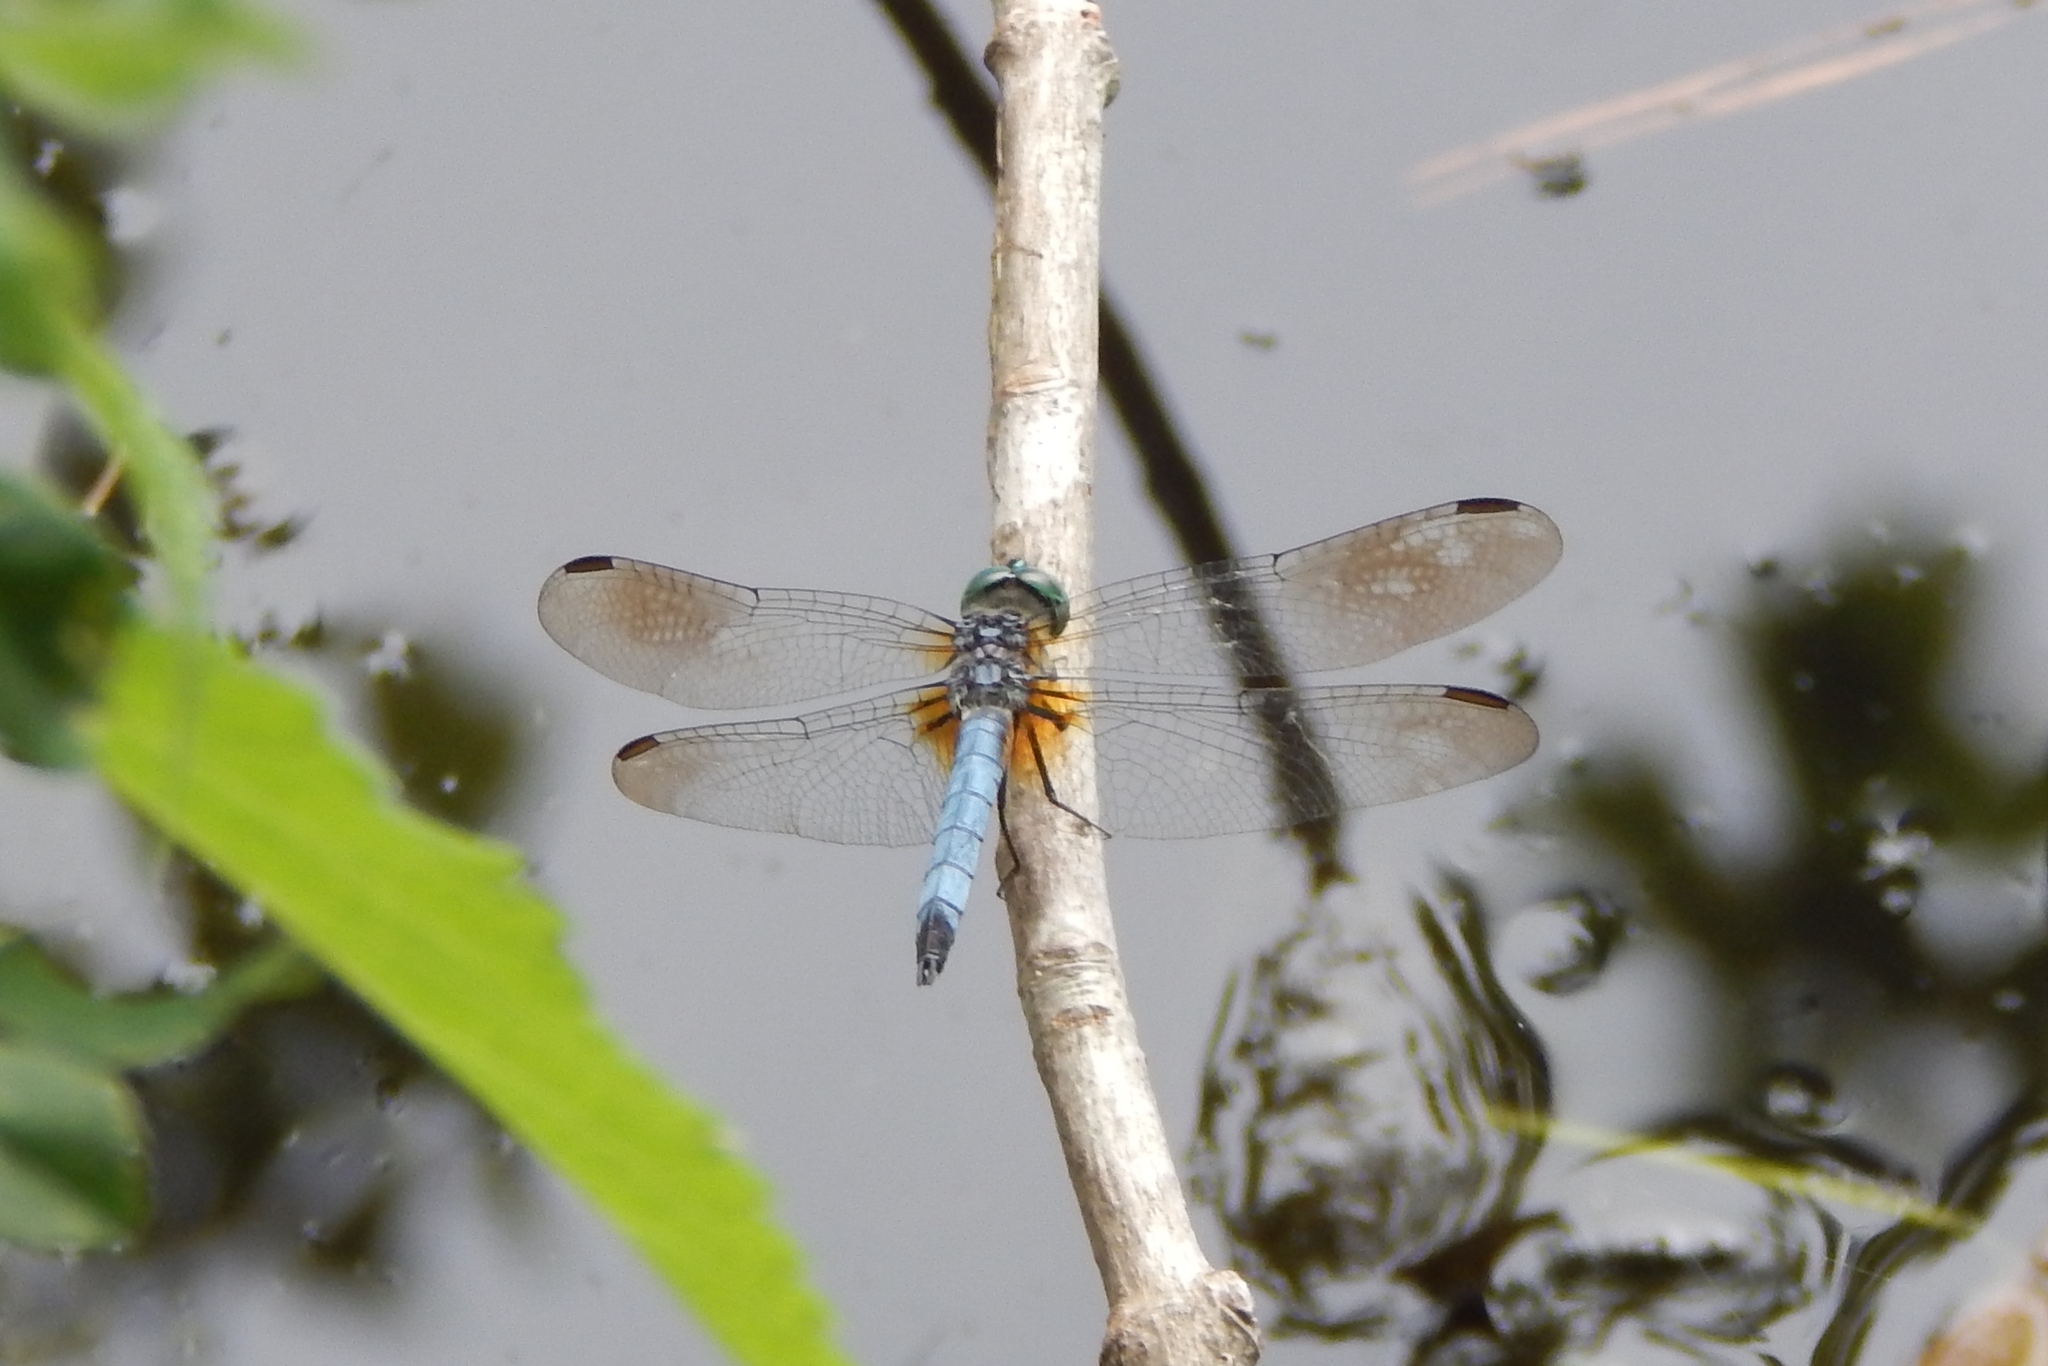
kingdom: Animalia
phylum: Arthropoda
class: Insecta
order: Odonata
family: Libellulidae
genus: Pachydiplax
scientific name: Pachydiplax longipennis
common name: Blue dasher
